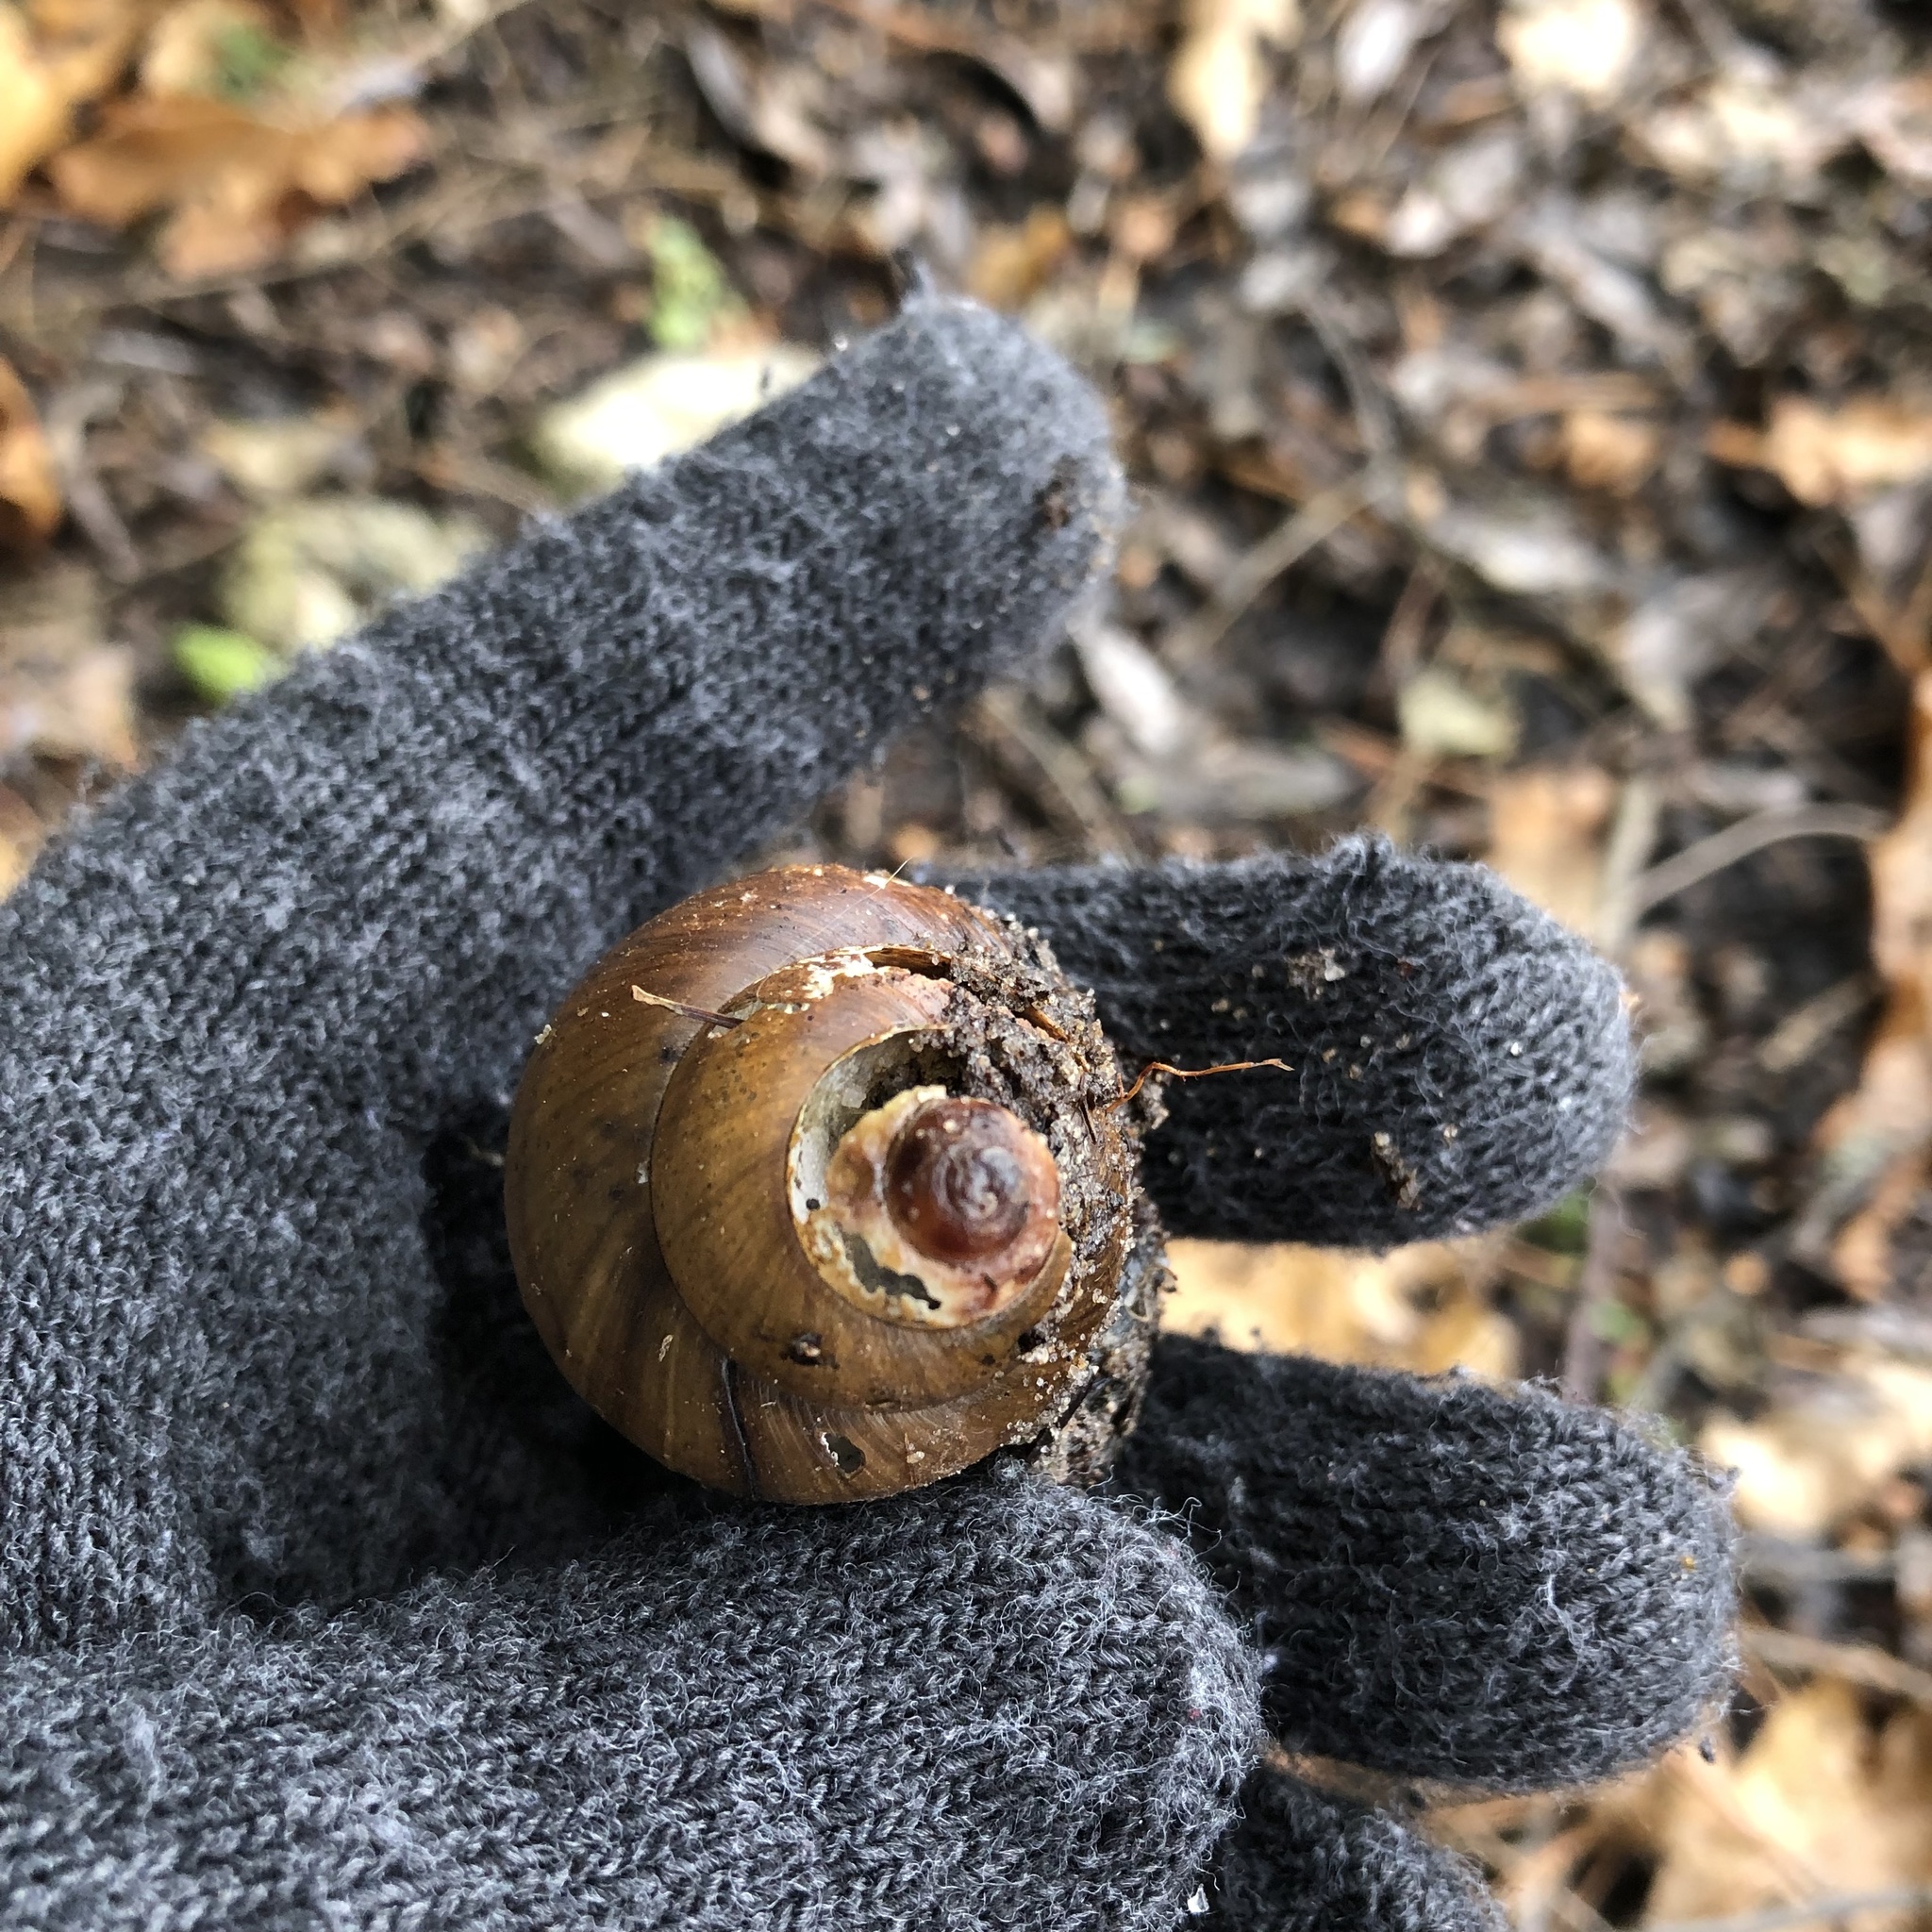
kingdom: Animalia
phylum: Mollusca
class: Gastropoda
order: Architaenioglossa
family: Viviparidae
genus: Cipangopaludina
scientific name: Cipangopaludina chinensis
